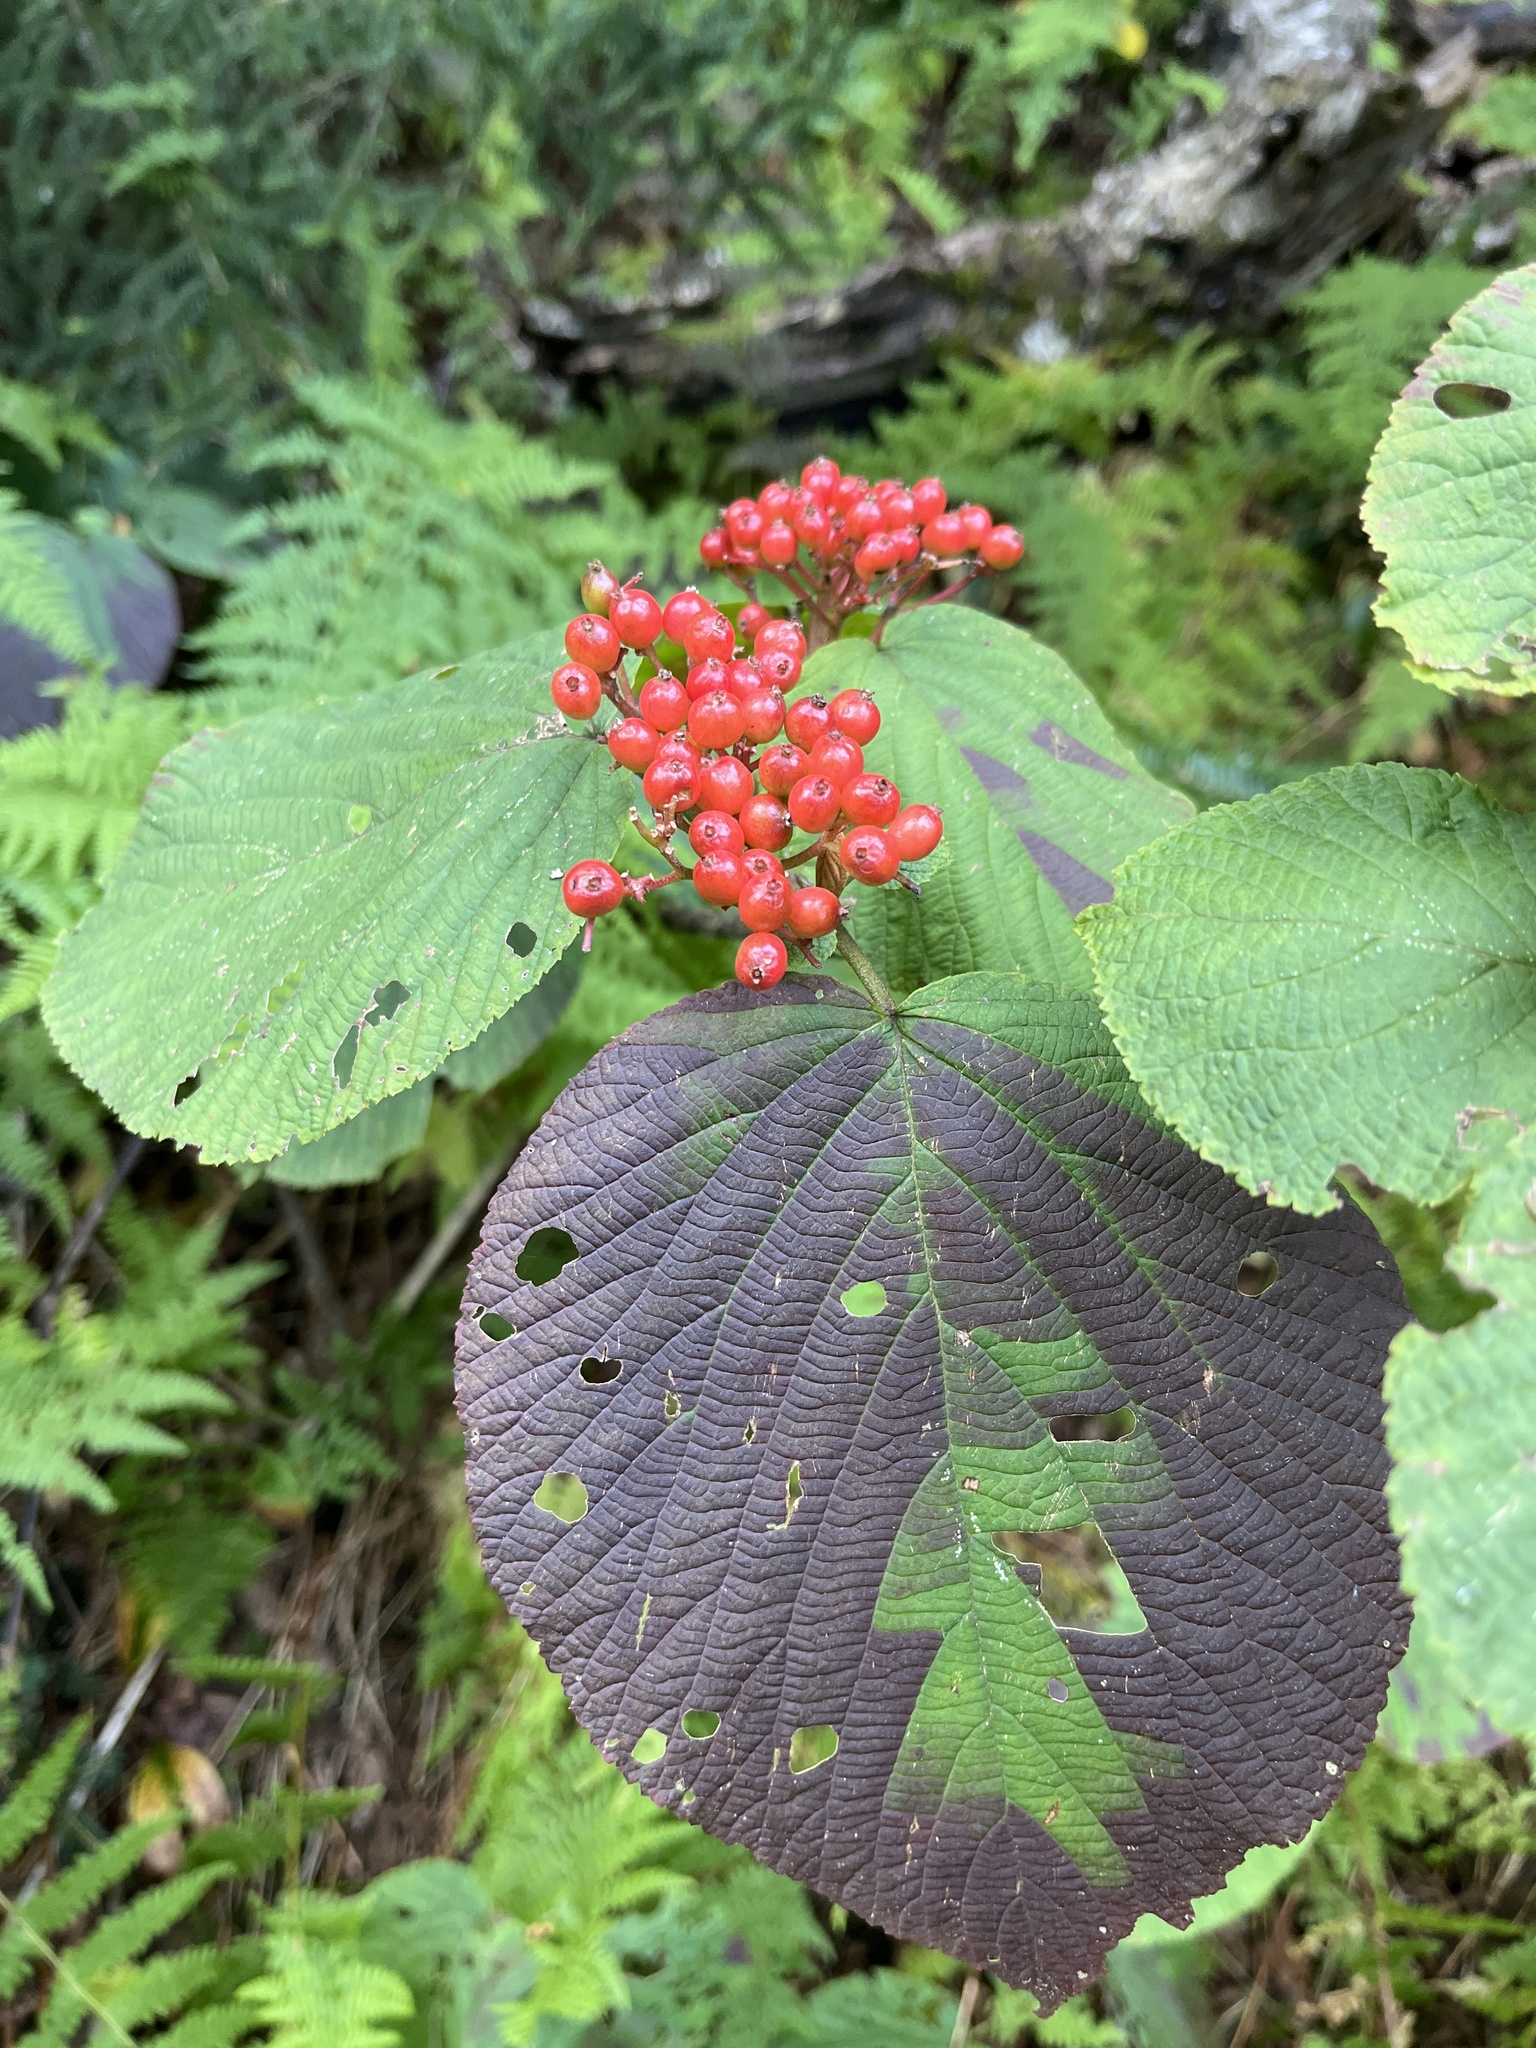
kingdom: Plantae
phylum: Tracheophyta
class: Magnoliopsida
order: Dipsacales
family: Viburnaceae
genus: Viburnum
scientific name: Viburnum lantanoides
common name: Hobblebush
